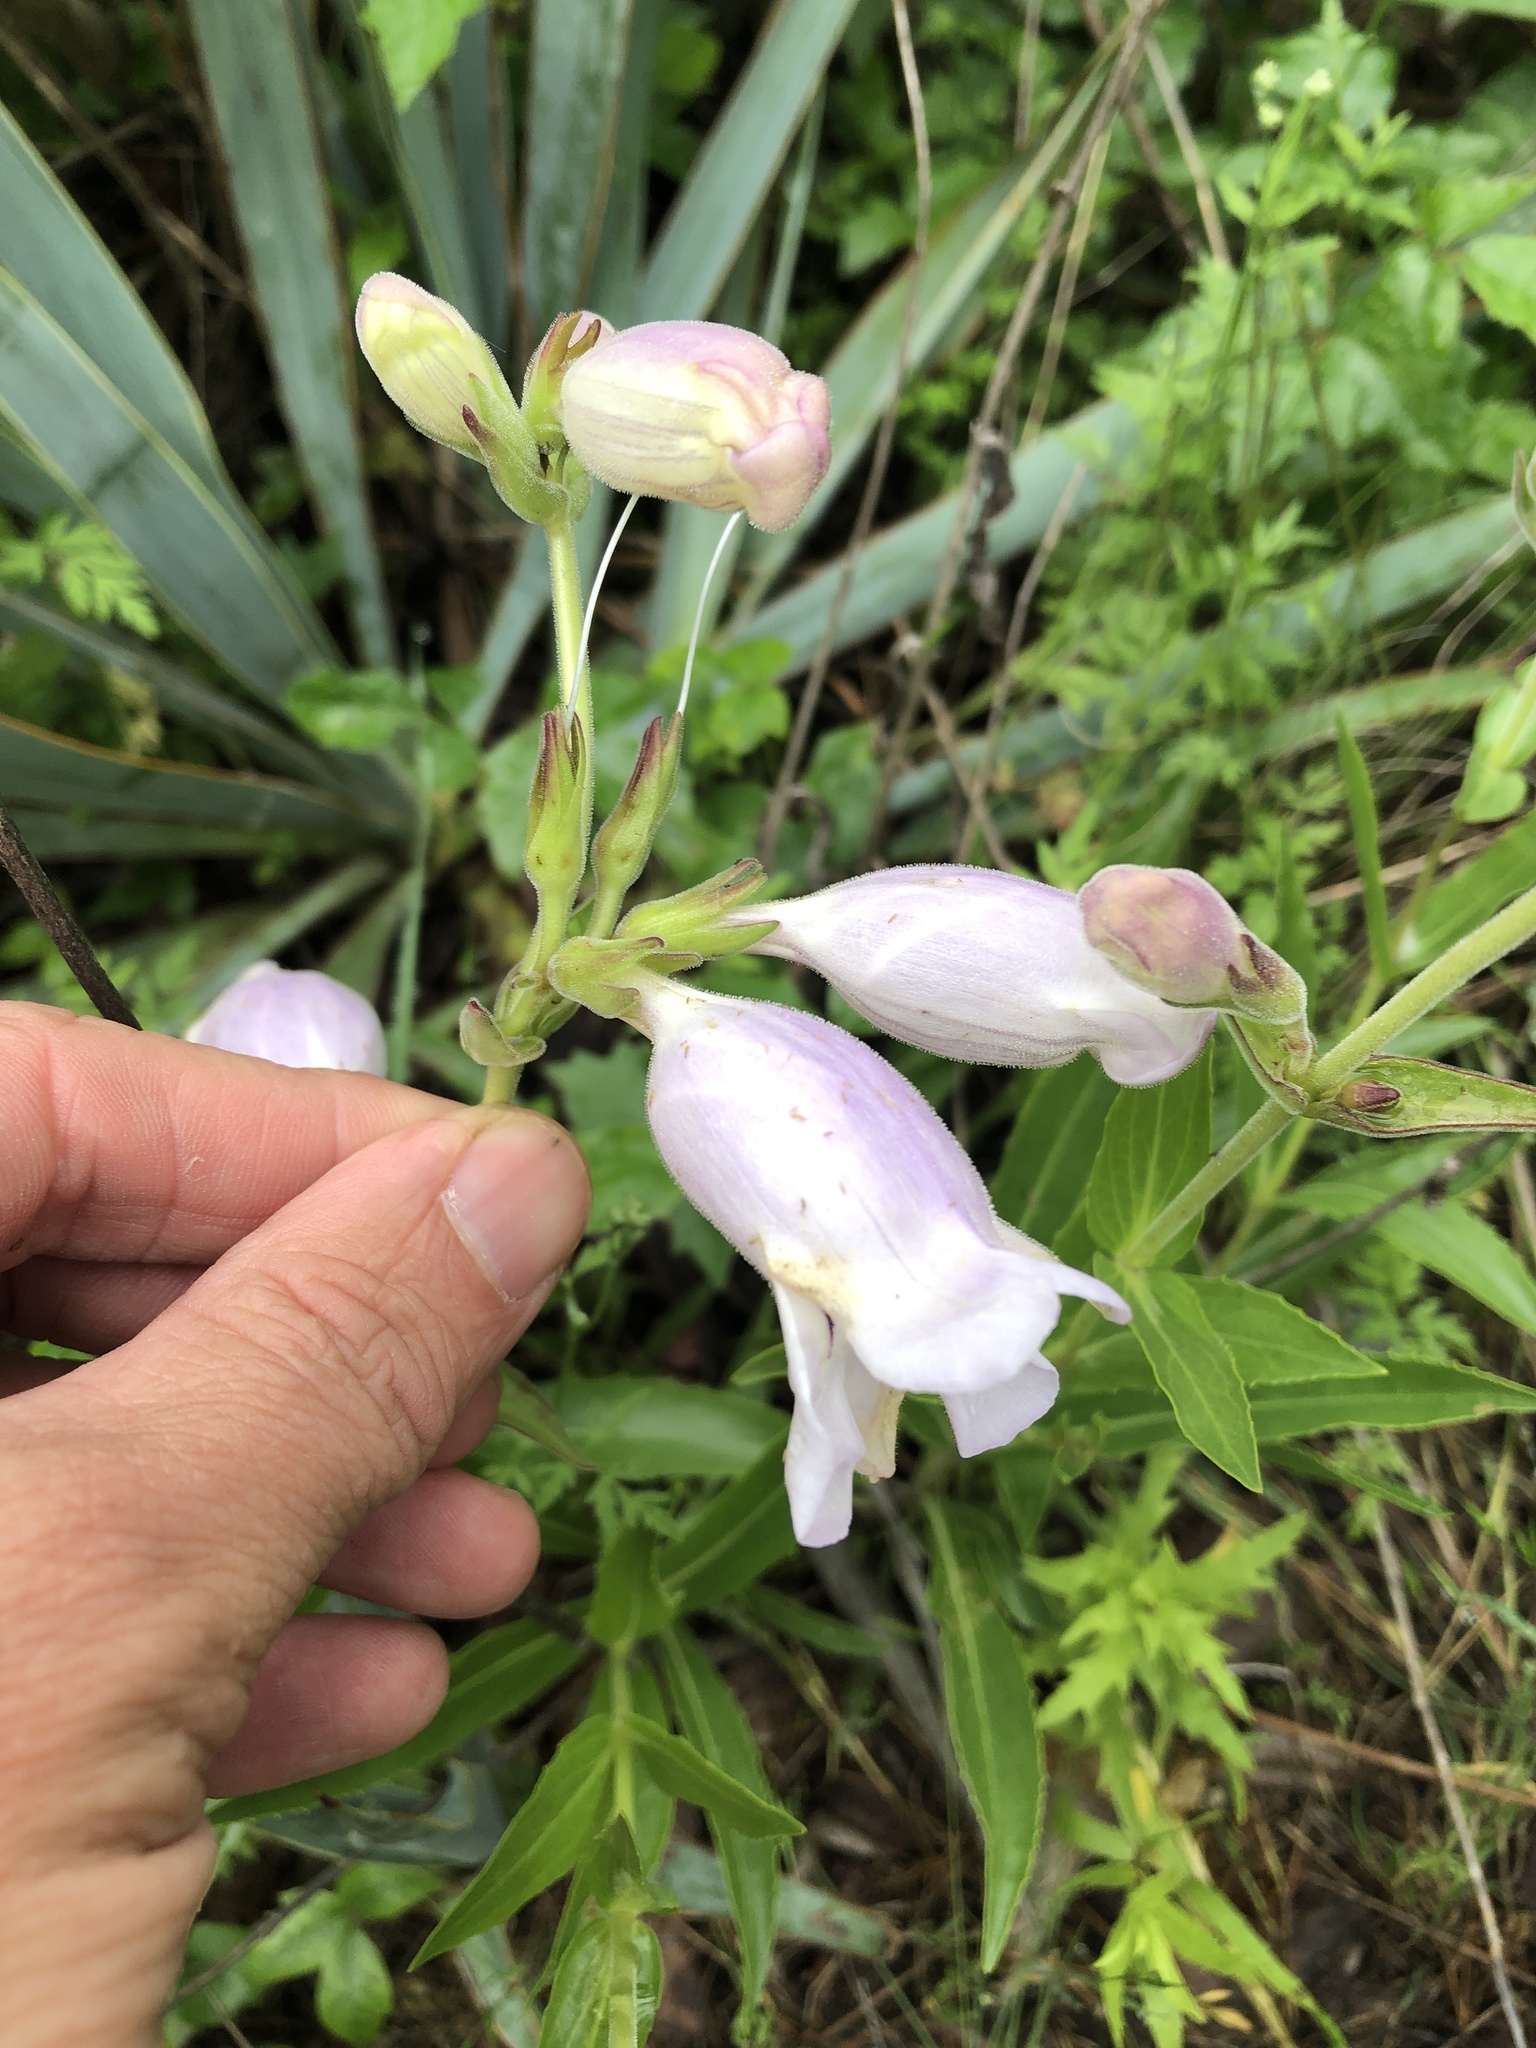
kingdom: Plantae
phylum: Tracheophyta
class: Magnoliopsida
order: Lamiales
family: Plantaginaceae
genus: Penstemon
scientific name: Penstemon cobaea
